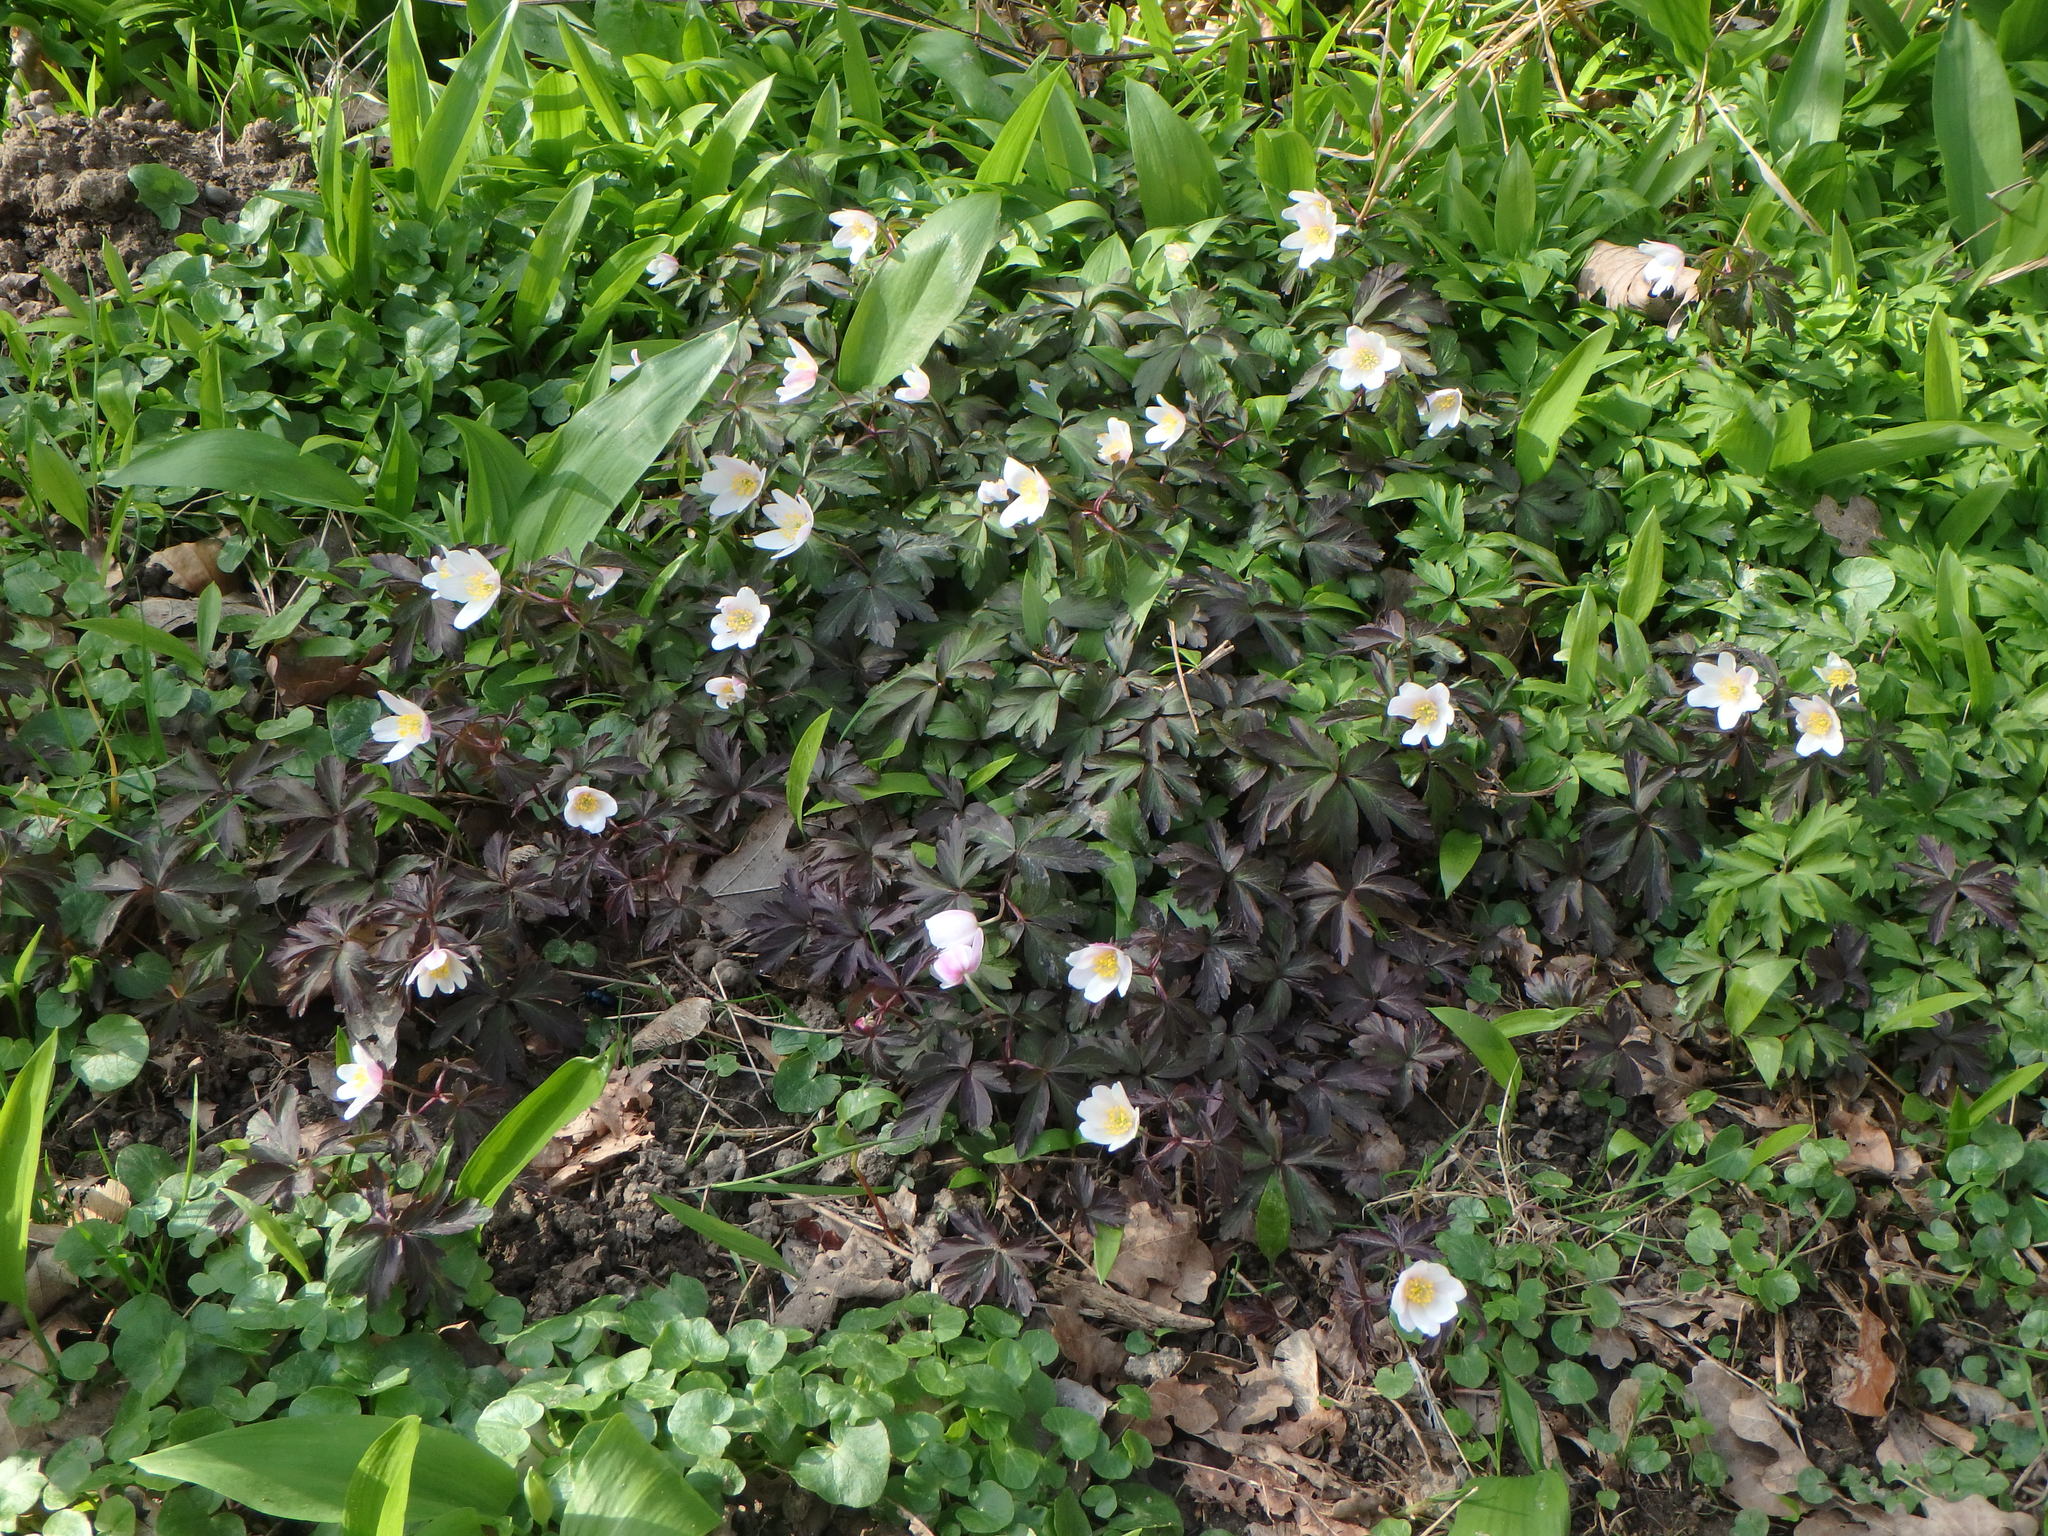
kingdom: Plantae
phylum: Tracheophyta
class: Magnoliopsida
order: Ranunculales
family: Ranunculaceae
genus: Anemone
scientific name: Anemone nemorosa
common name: Wood anemone
